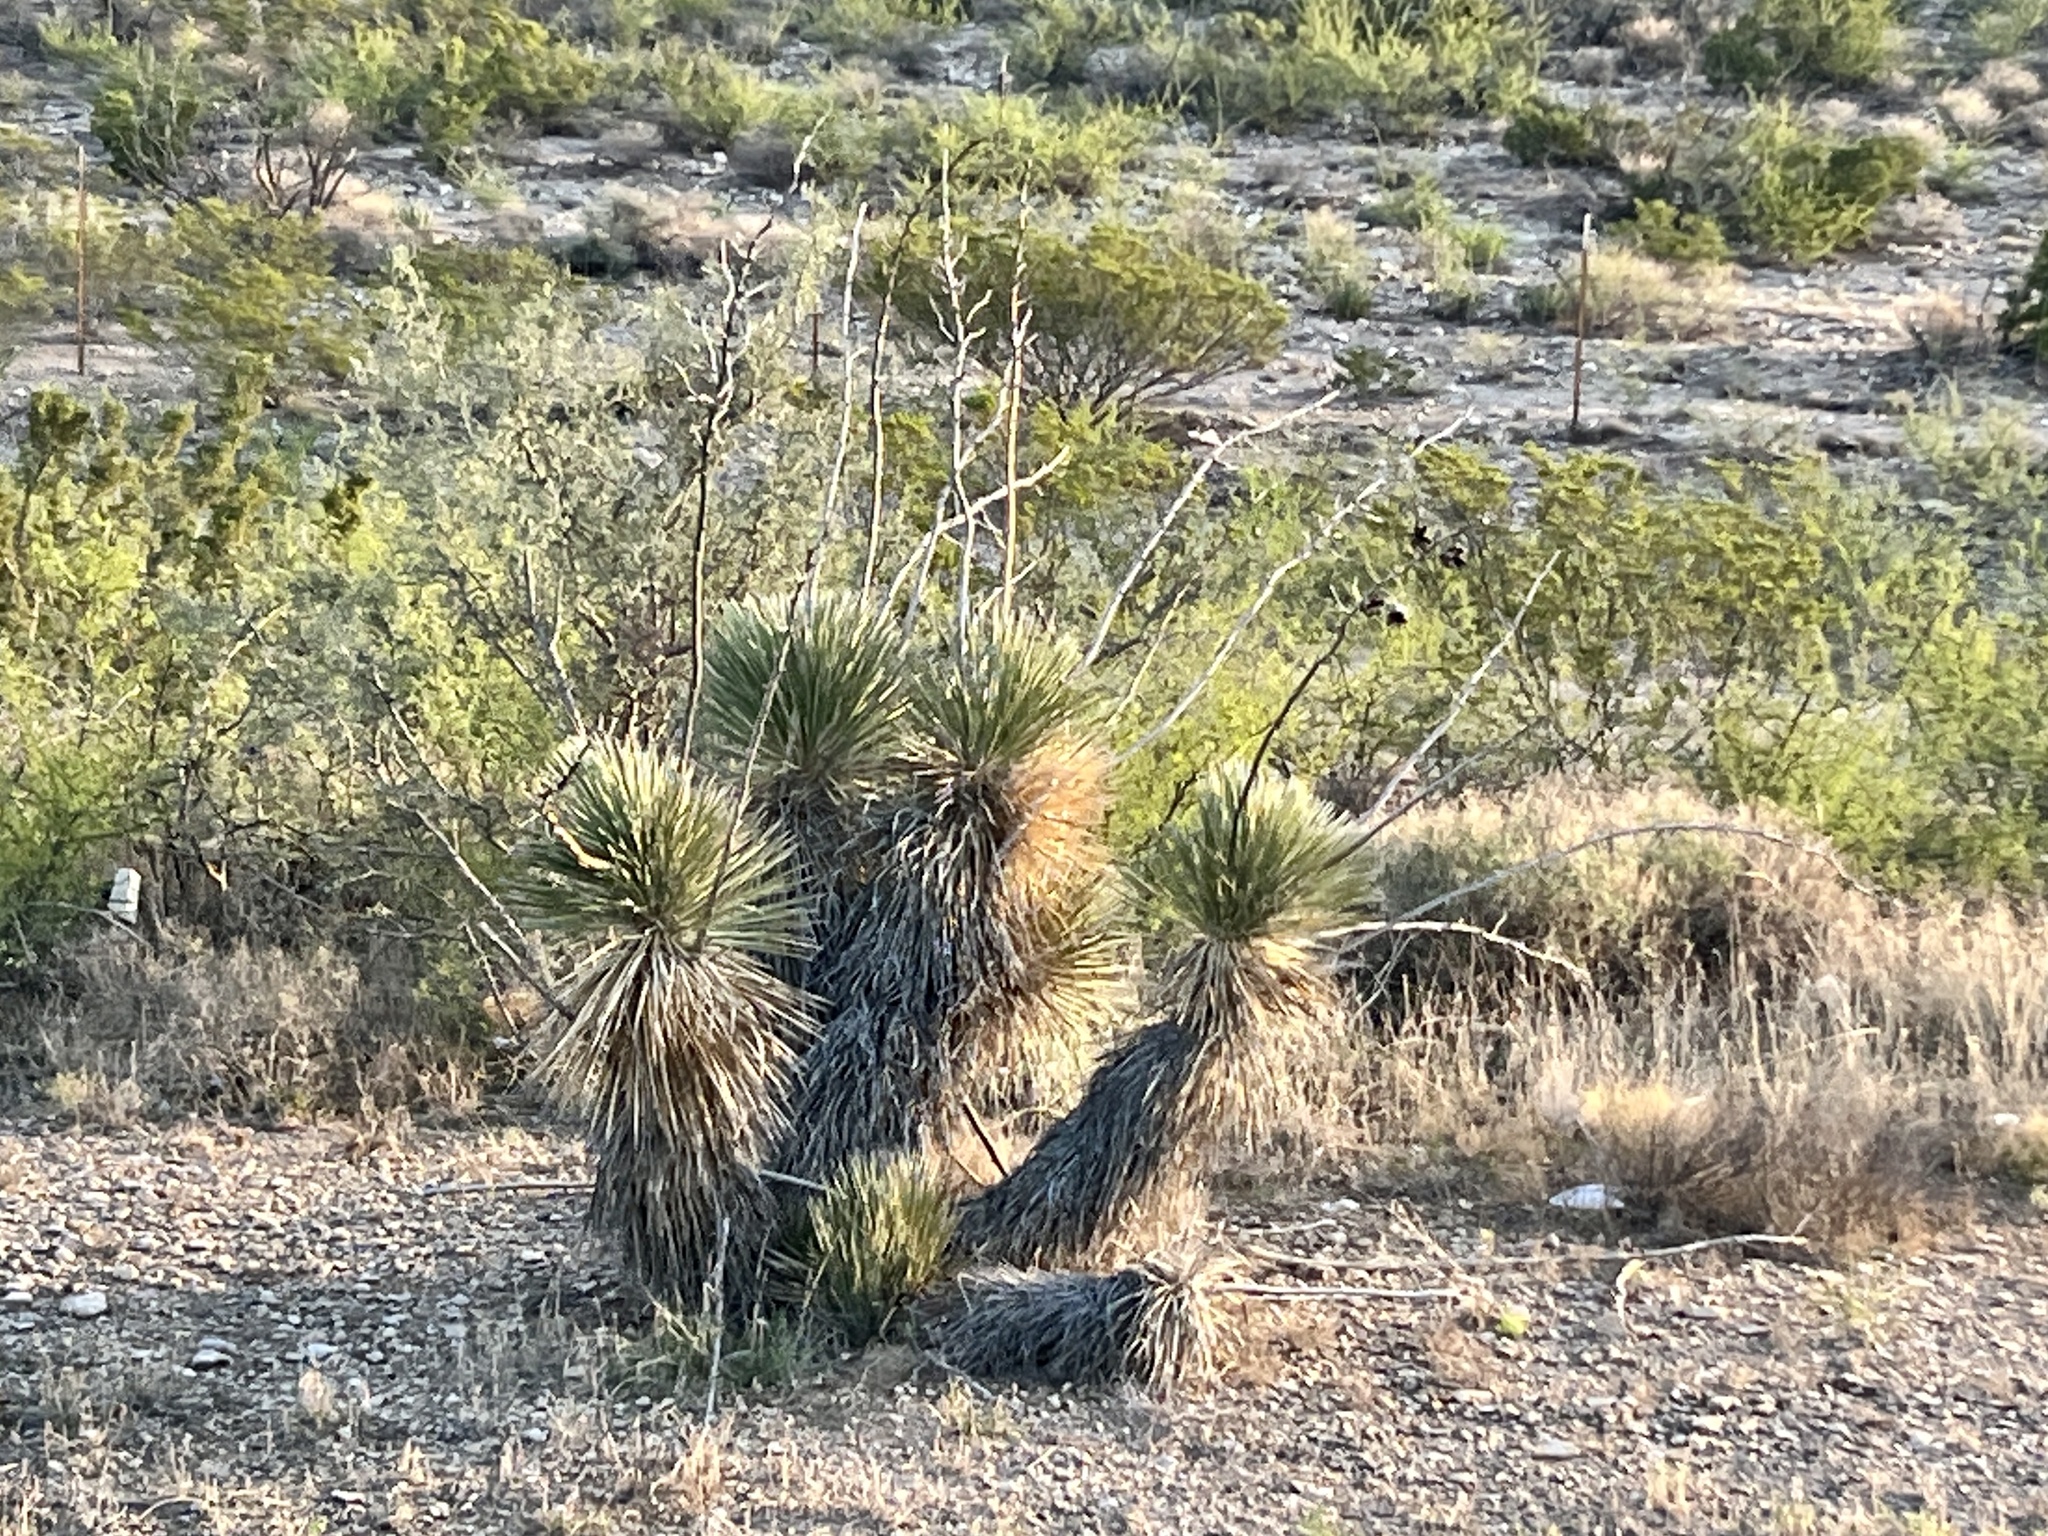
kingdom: Plantae
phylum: Tracheophyta
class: Liliopsida
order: Asparagales
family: Asparagaceae
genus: Yucca
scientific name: Yucca elata
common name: Palmella
